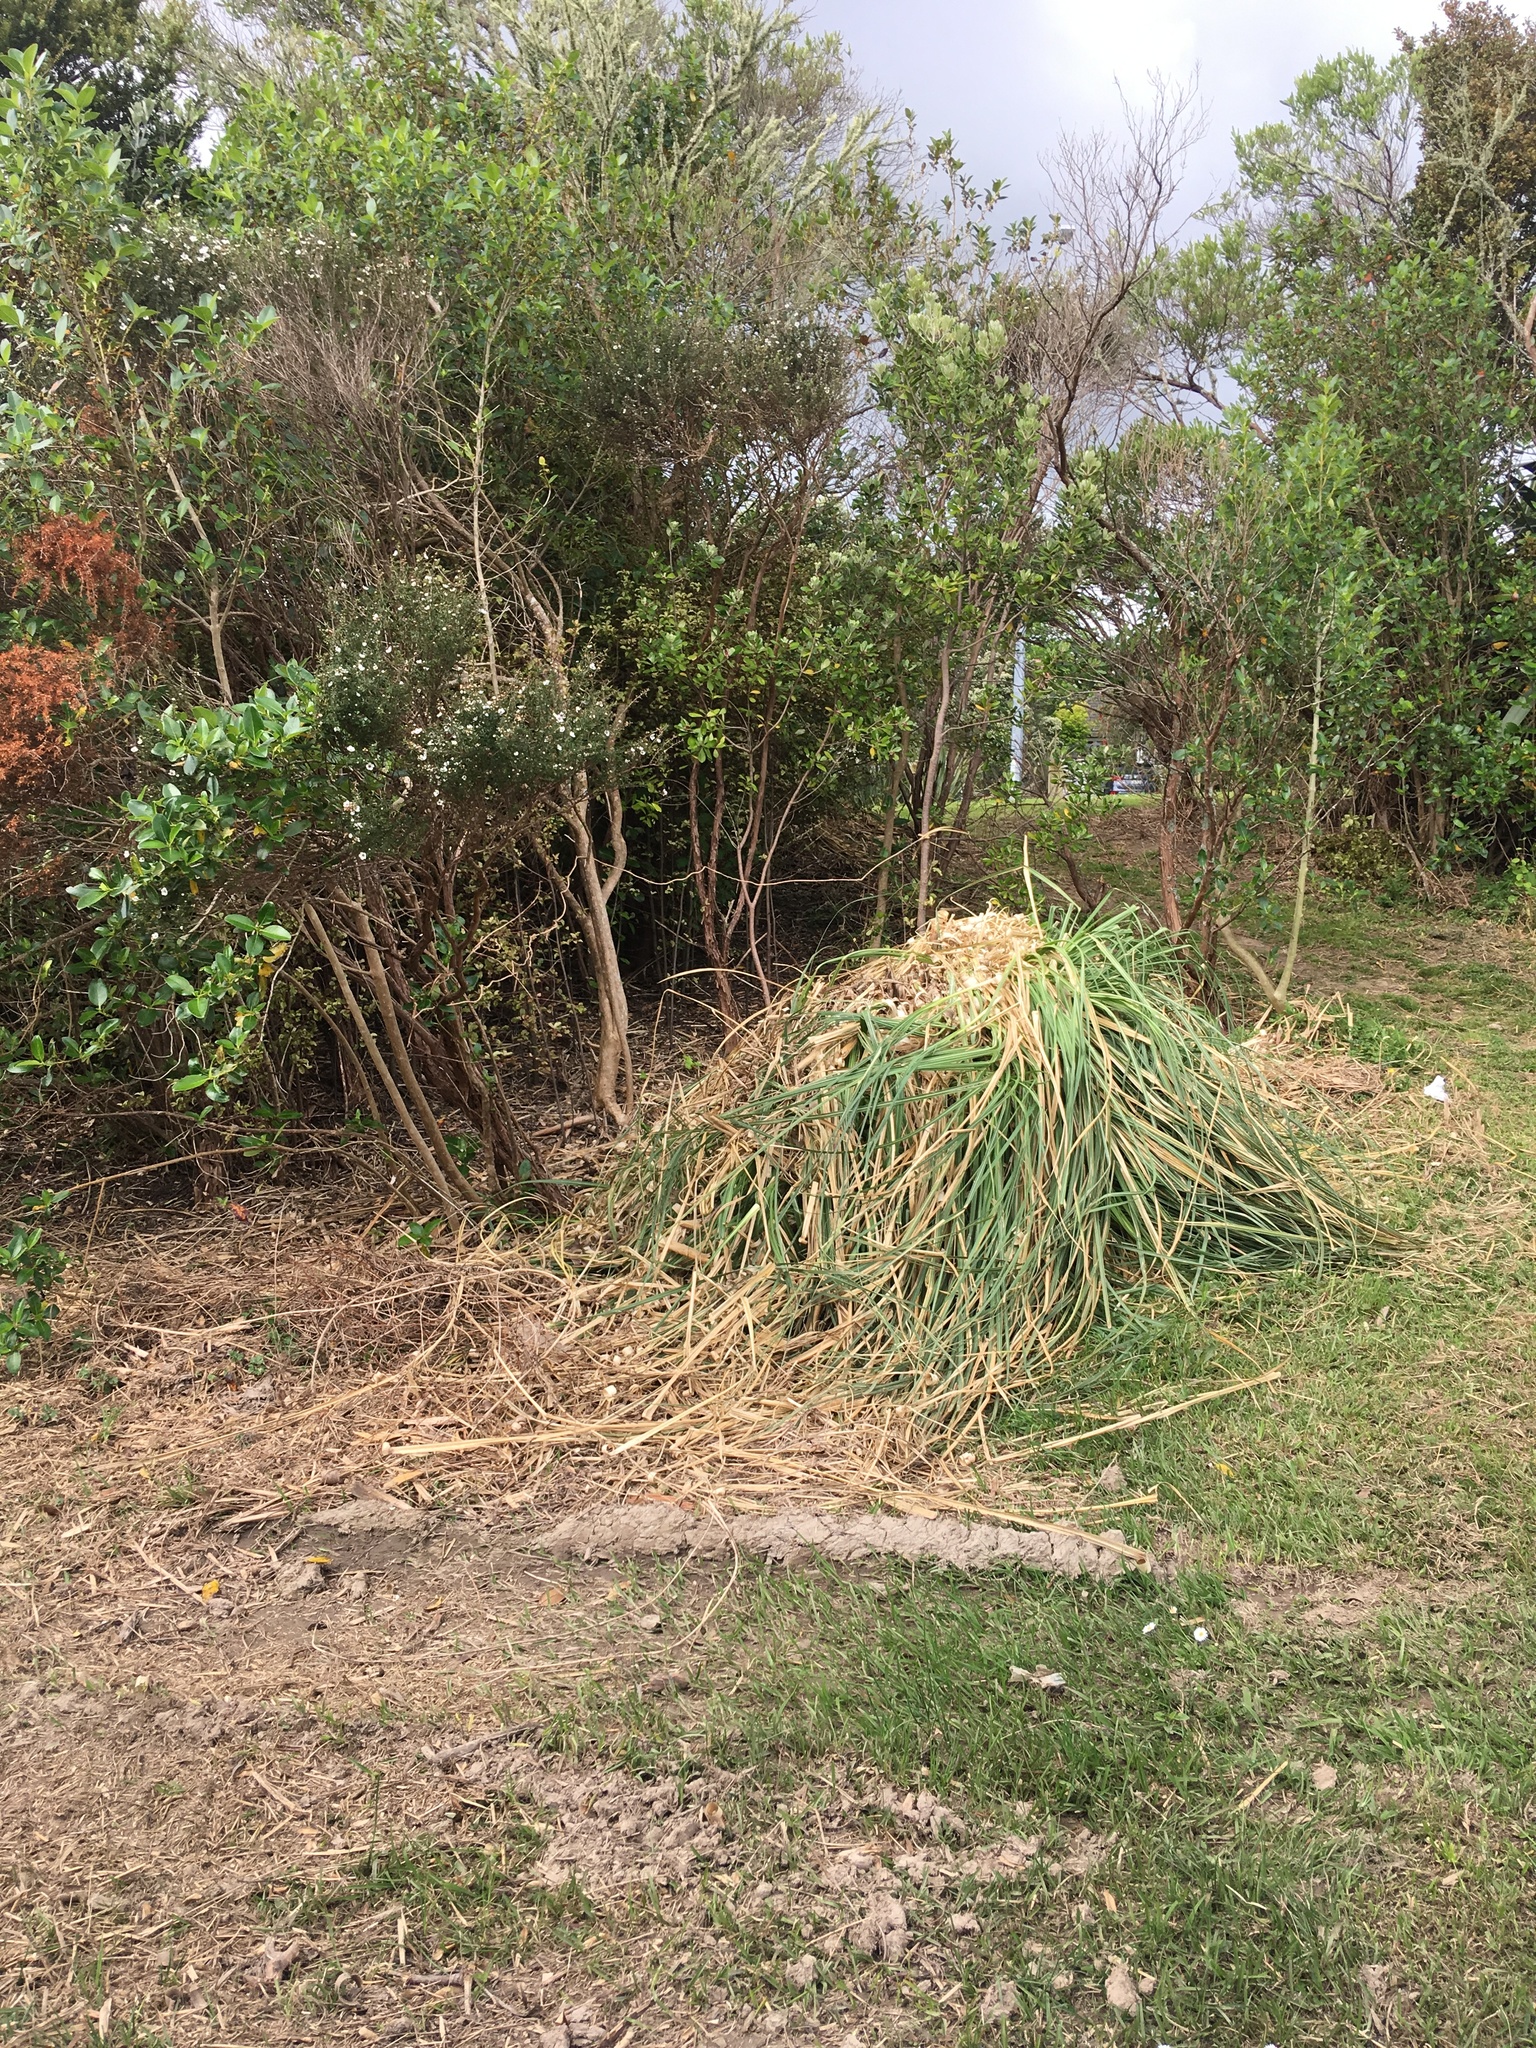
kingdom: Plantae
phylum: Tracheophyta
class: Liliopsida
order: Poales
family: Poaceae
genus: Cortaderia
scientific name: Cortaderia selloana
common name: Uruguayan pampas grass
